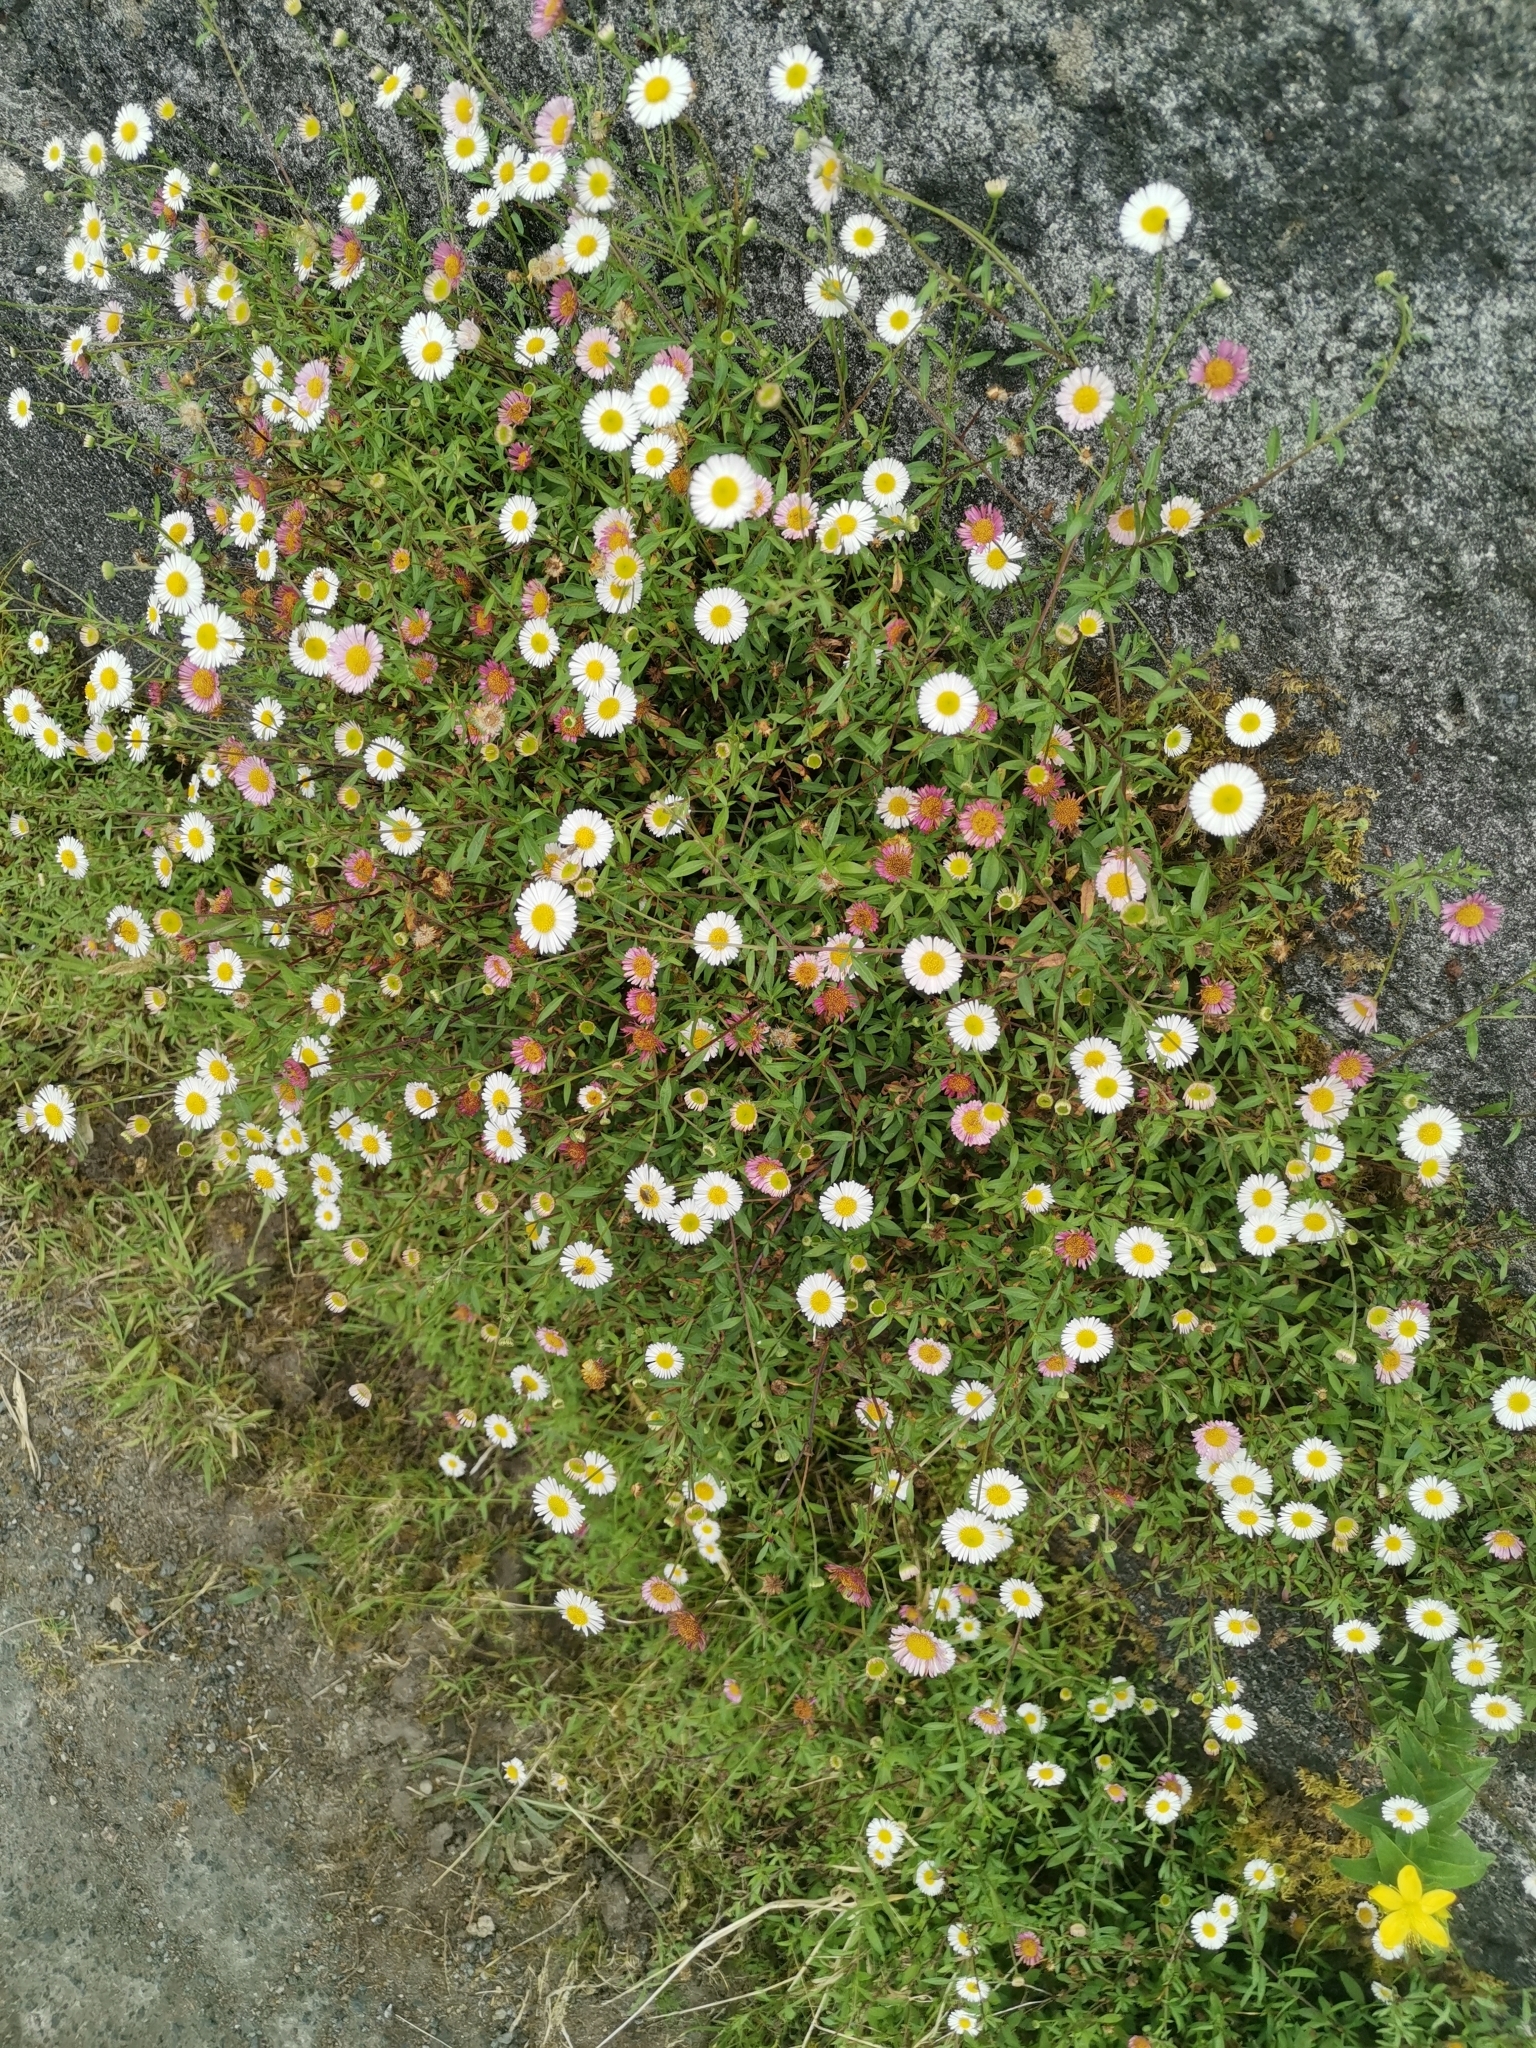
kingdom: Plantae
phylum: Tracheophyta
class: Magnoliopsida
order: Asterales
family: Asteraceae
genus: Erigeron
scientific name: Erigeron karvinskianus
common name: Mexican fleabane
